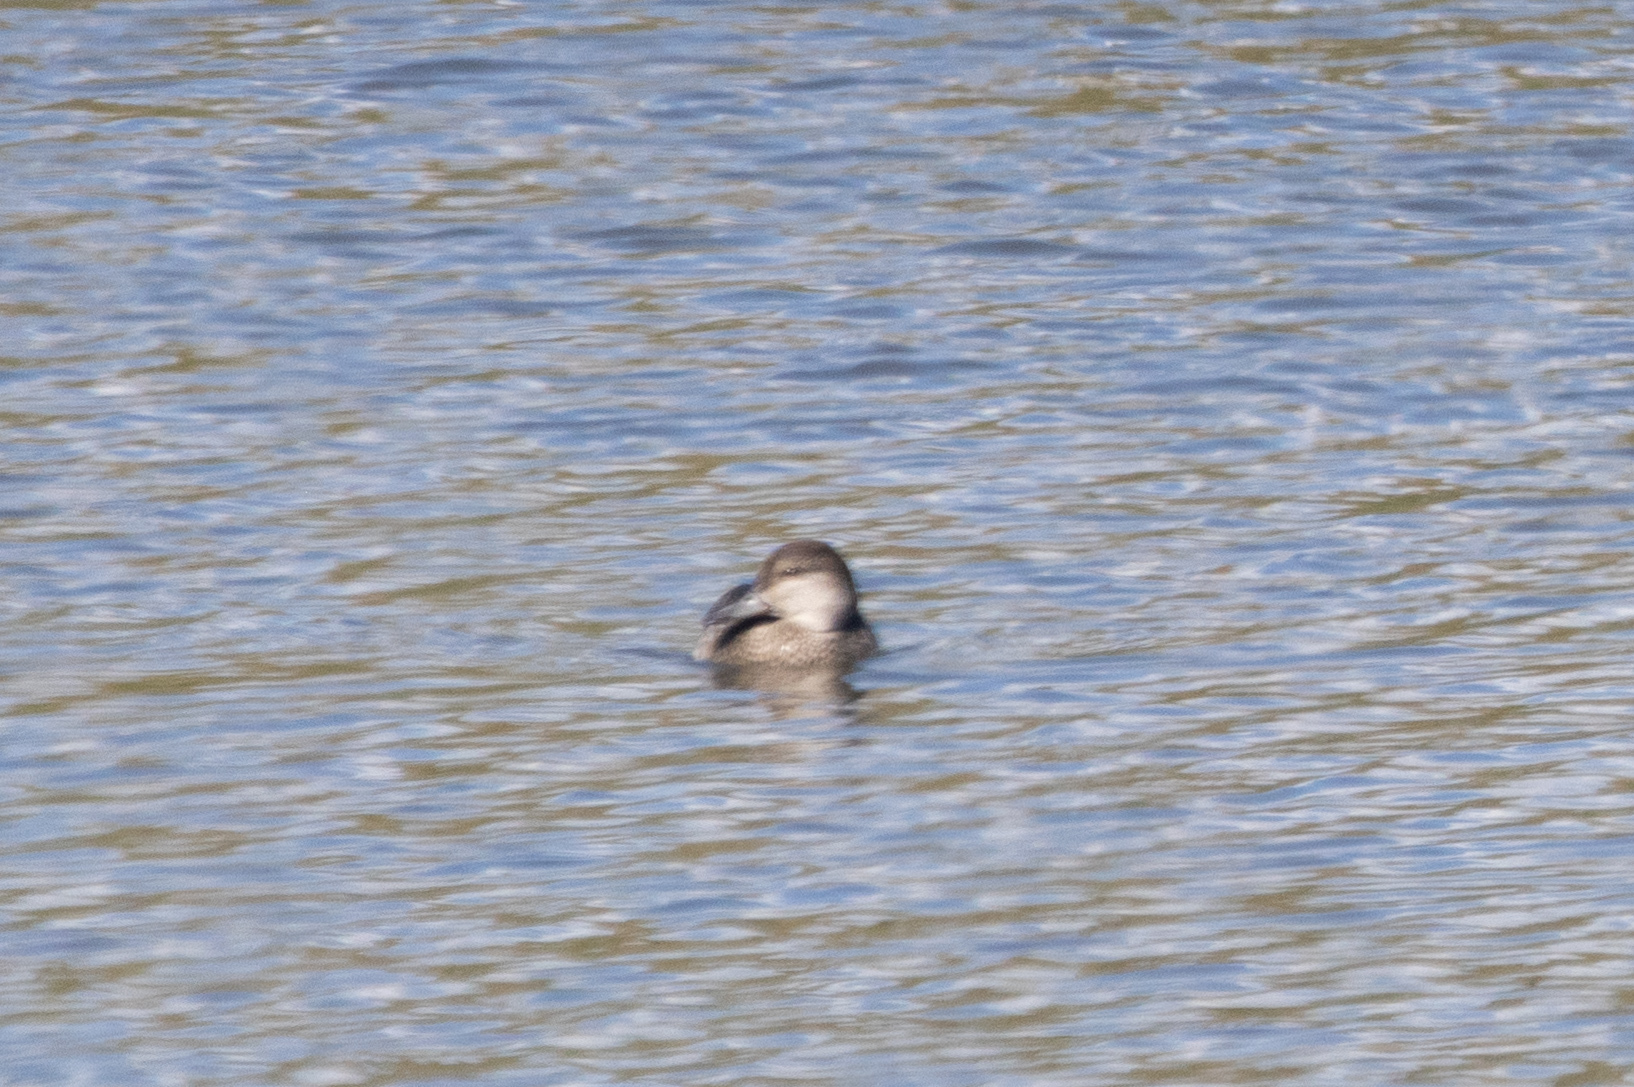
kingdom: Animalia
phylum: Chordata
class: Aves
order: Anseriformes
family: Anatidae
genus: Anas
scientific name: Anas crecca
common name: Eurasian teal
